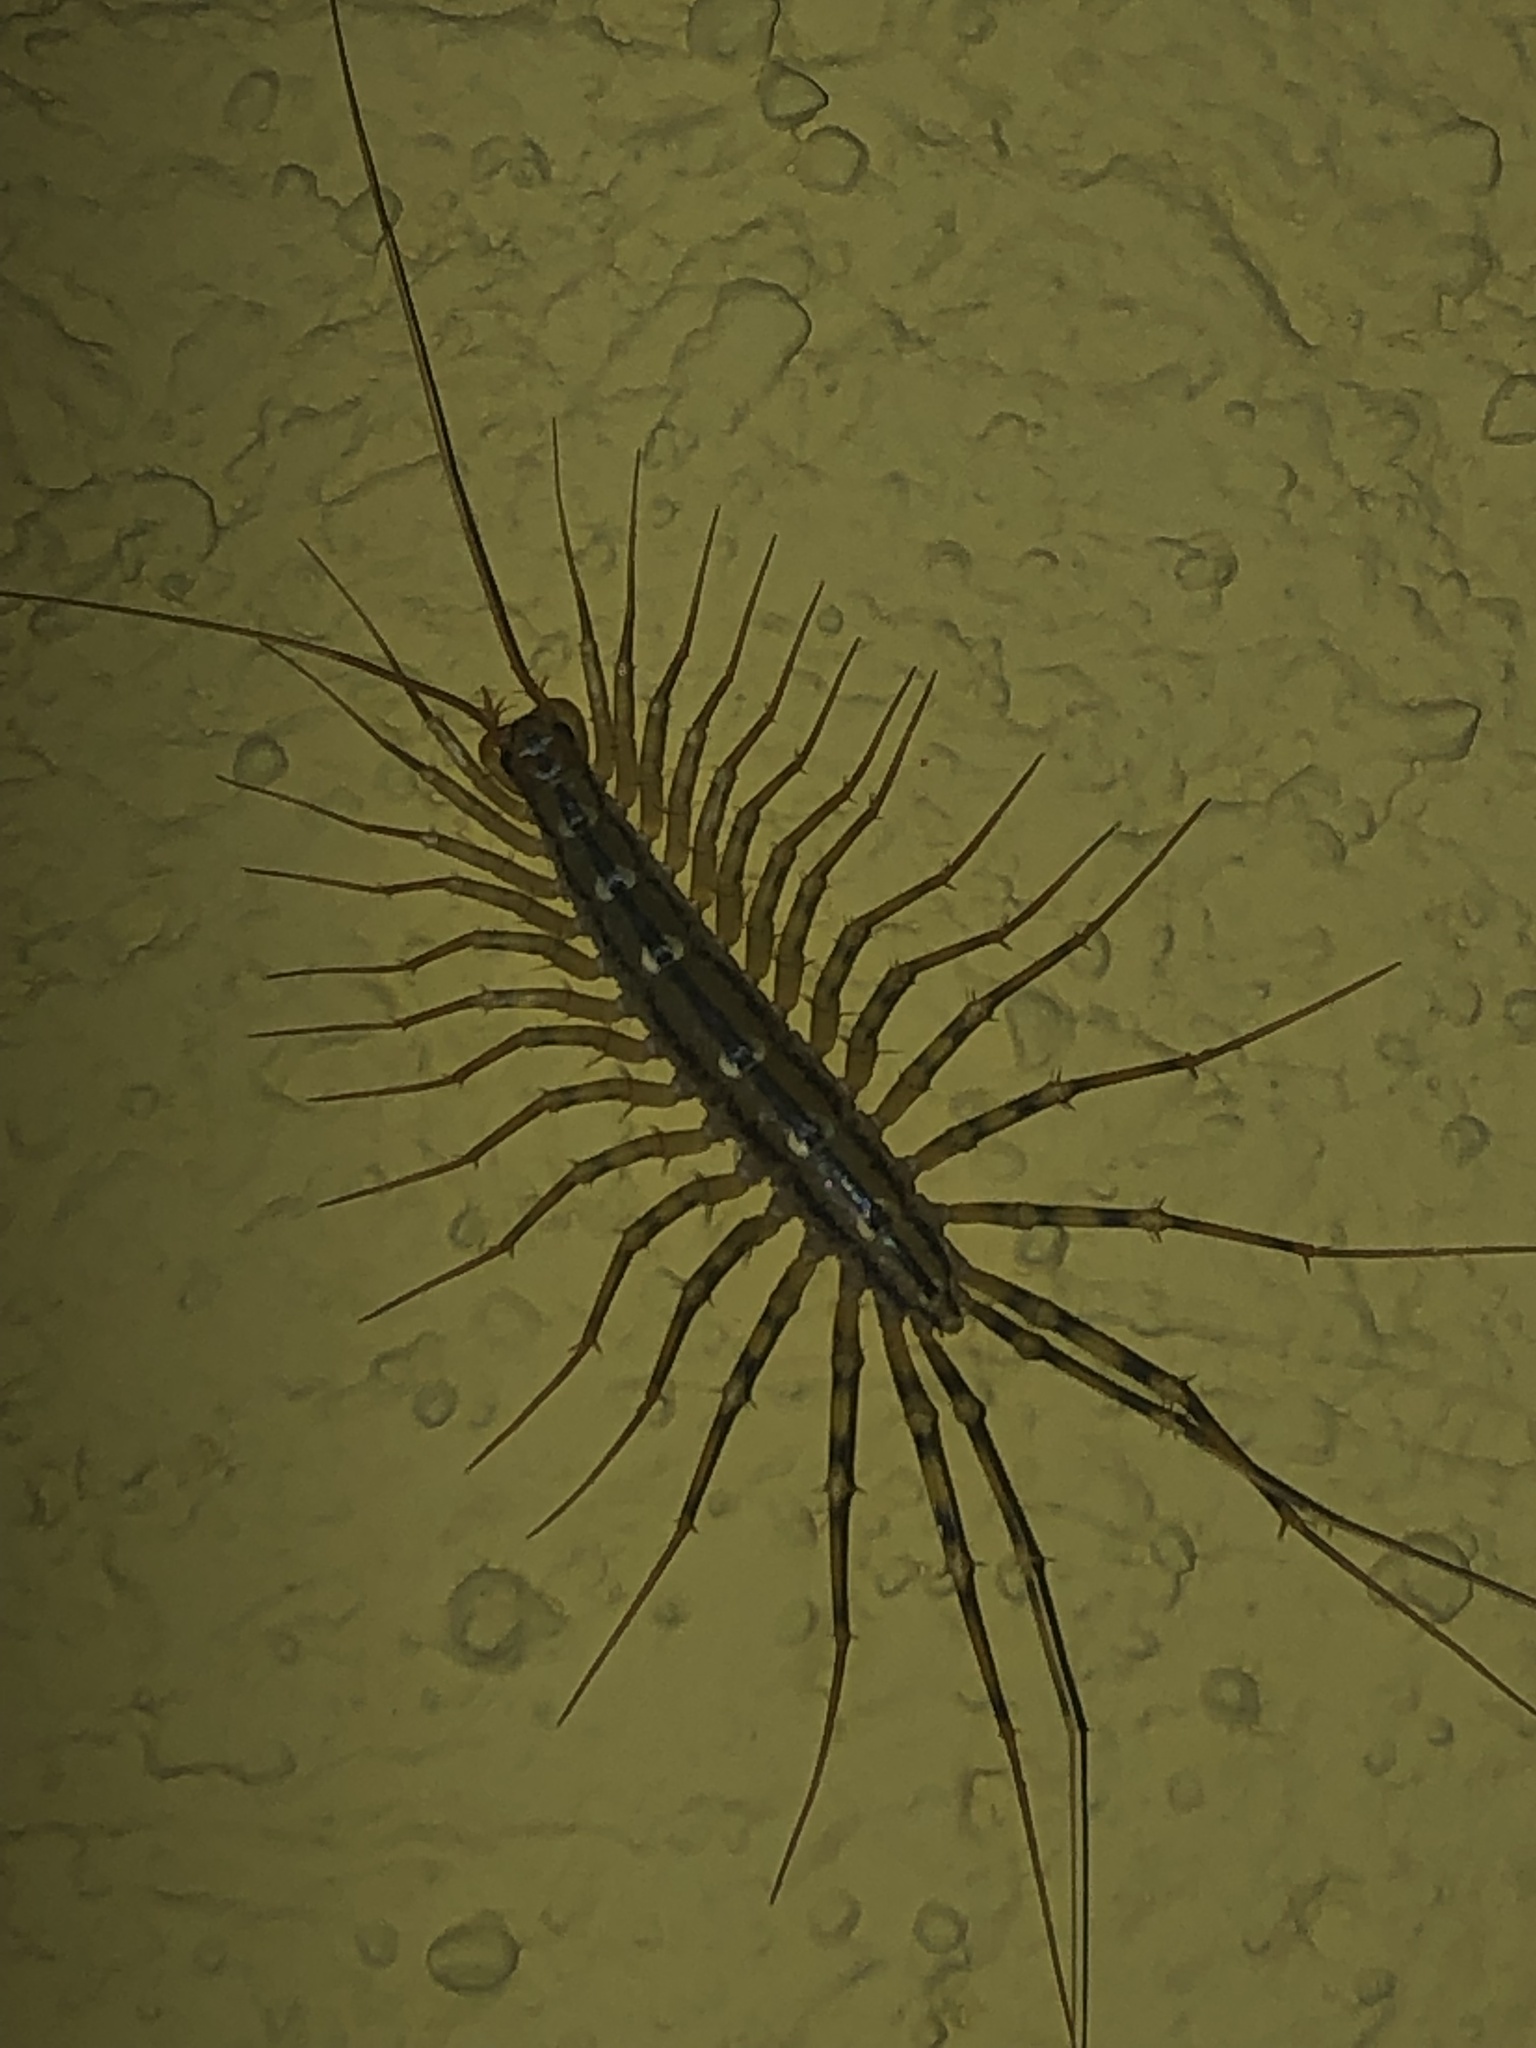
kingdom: Animalia
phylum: Arthropoda
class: Chilopoda
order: Scutigeromorpha
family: Scutigeridae
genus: Scutigera
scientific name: Scutigera coleoptrata
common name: House centipede
